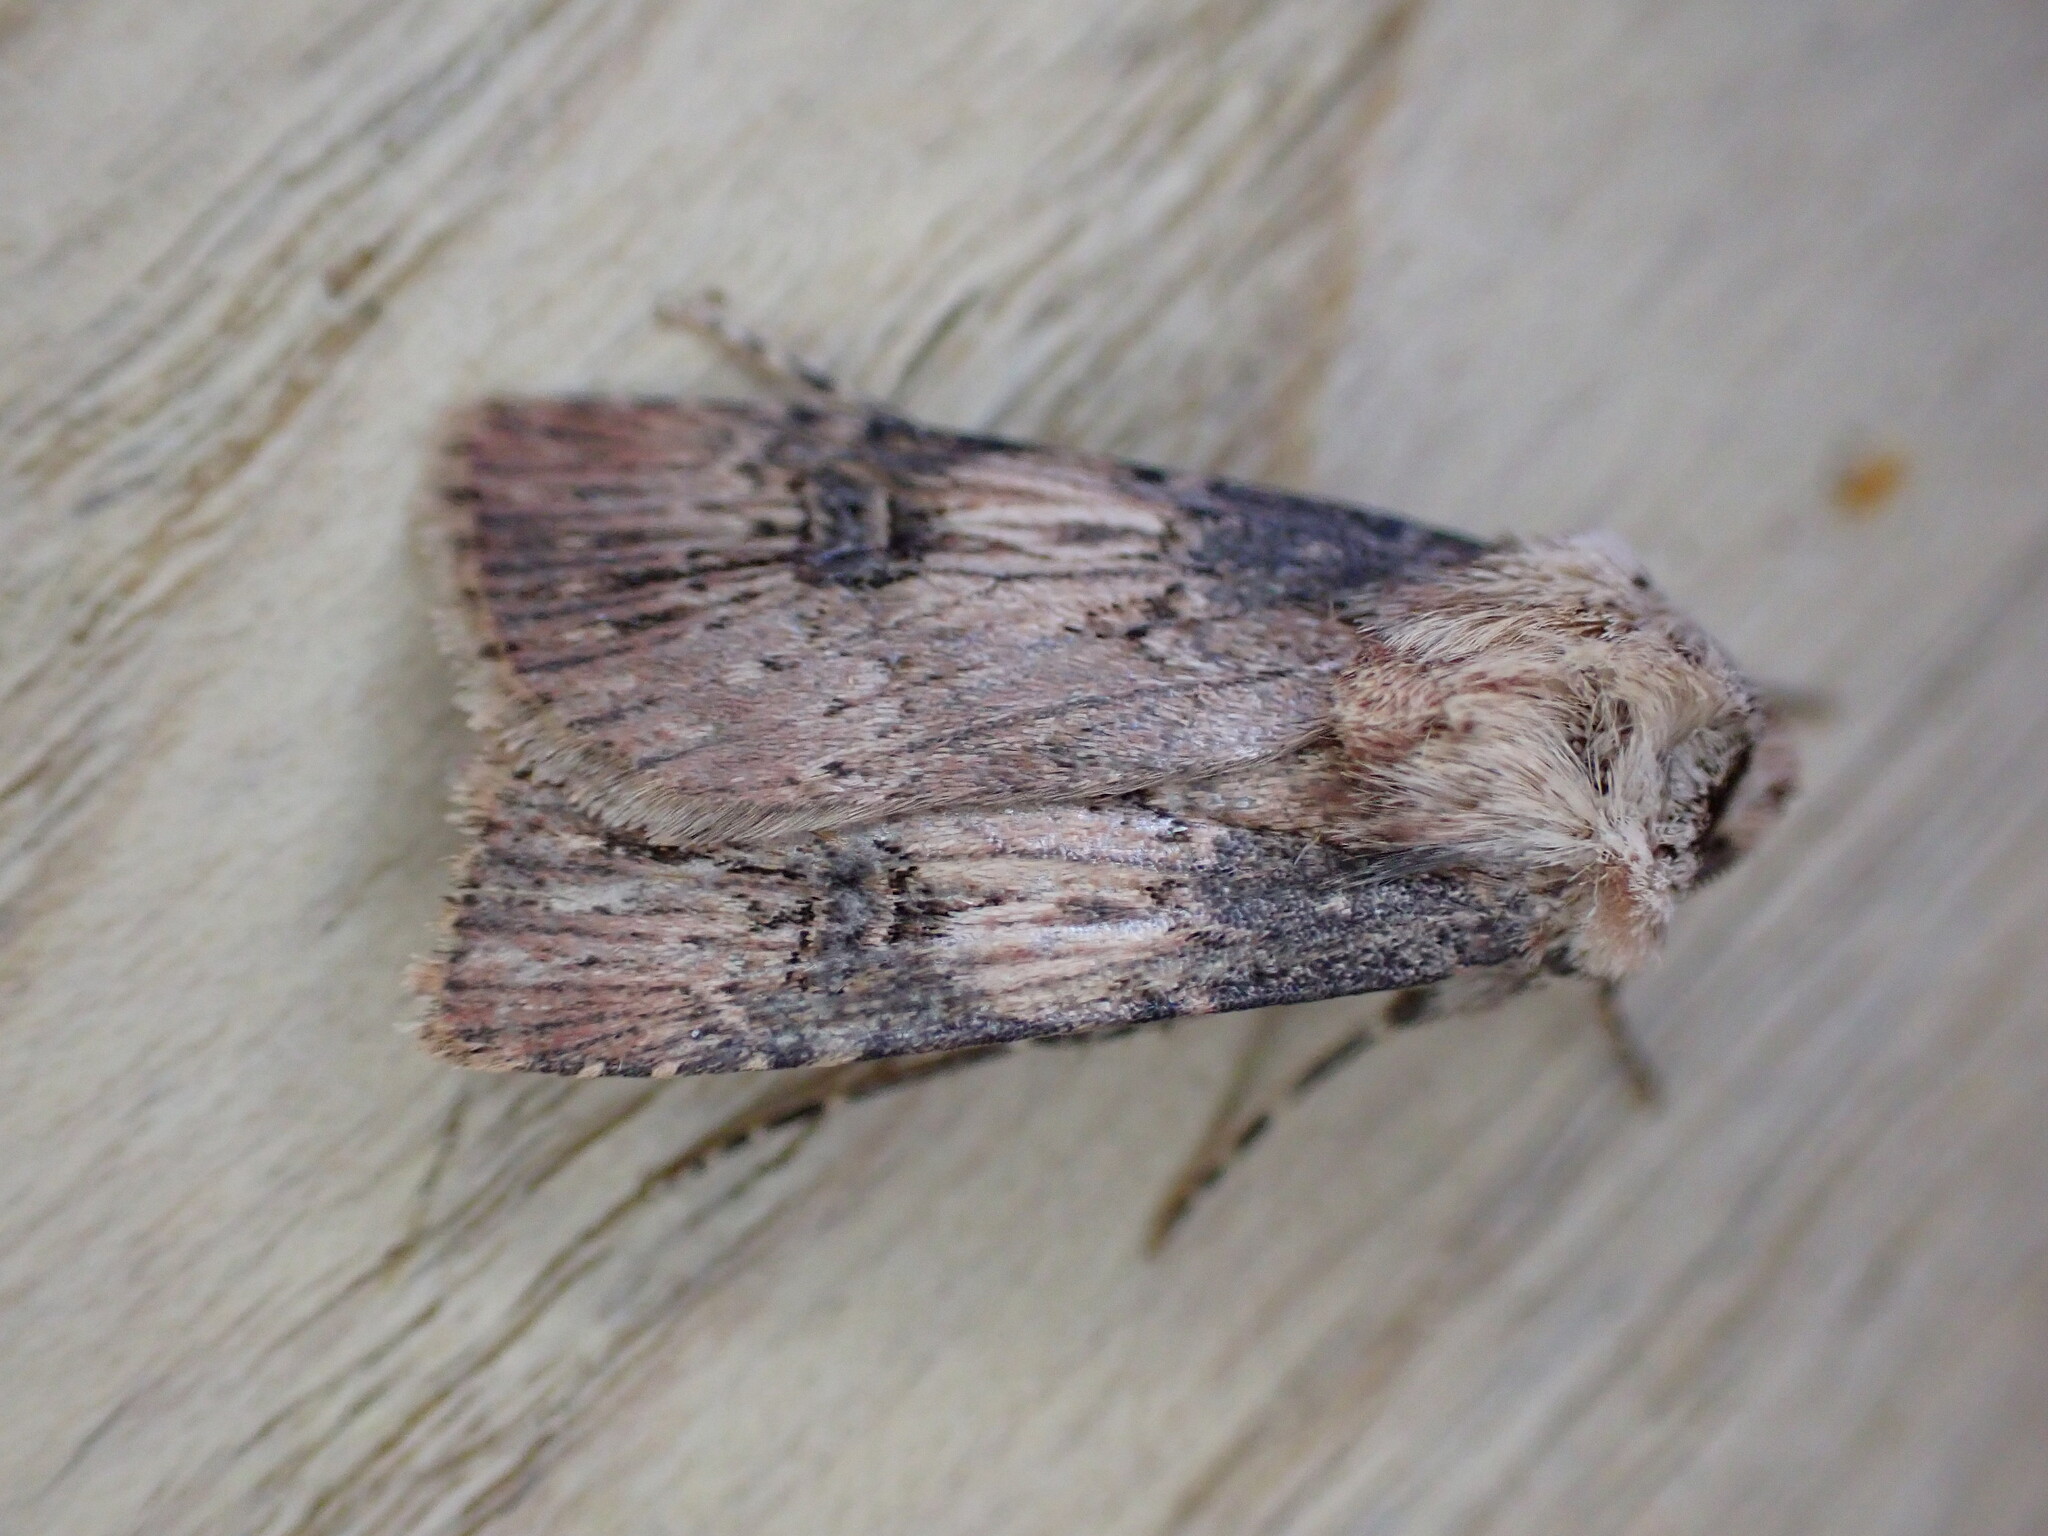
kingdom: Animalia
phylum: Arthropoda
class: Insecta
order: Lepidoptera
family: Noctuidae
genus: Agrotis
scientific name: Agrotis puta
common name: Shuttle-shaped dart
